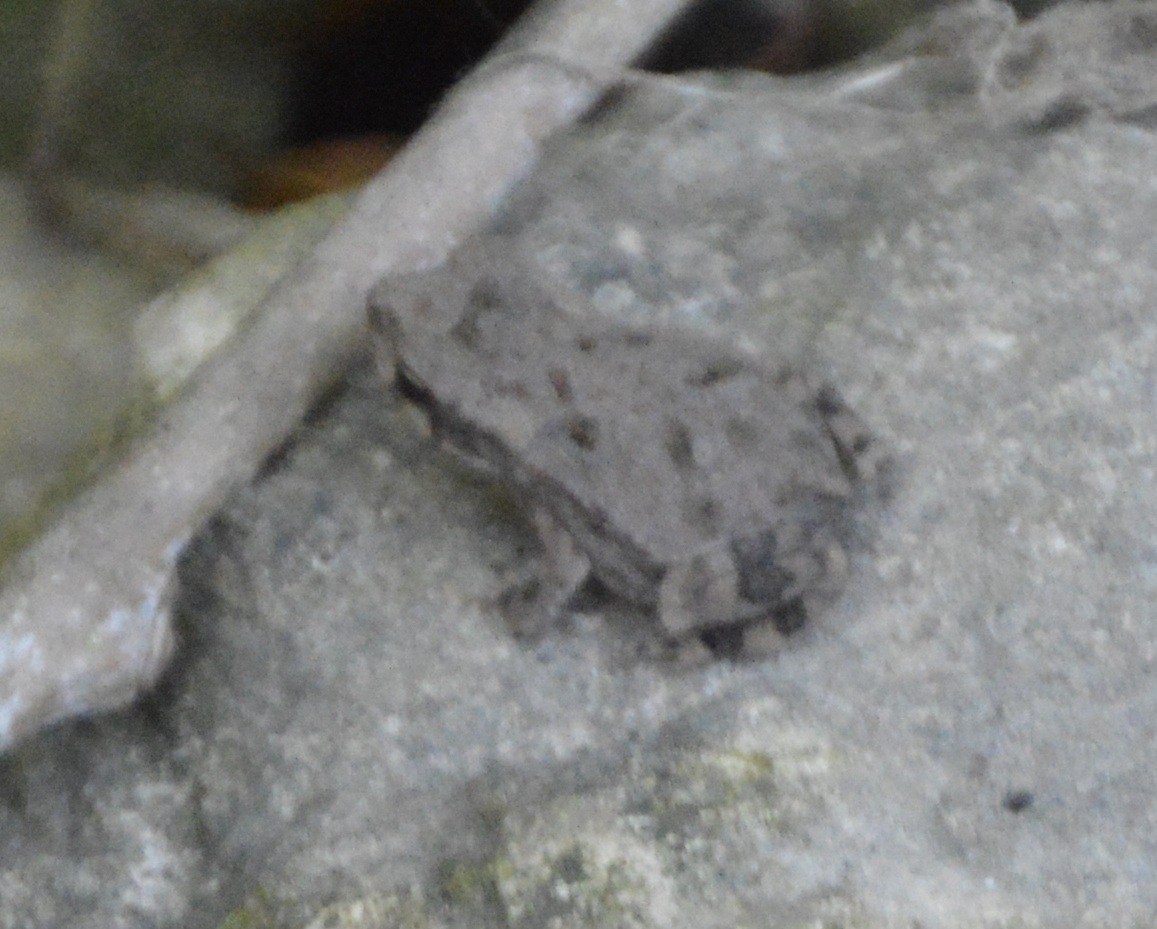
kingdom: Animalia
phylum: Chordata
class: Amphibia
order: Anura
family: Bufonidae
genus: Incilius
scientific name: Incilius nebulifer
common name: Gulf coast toad
